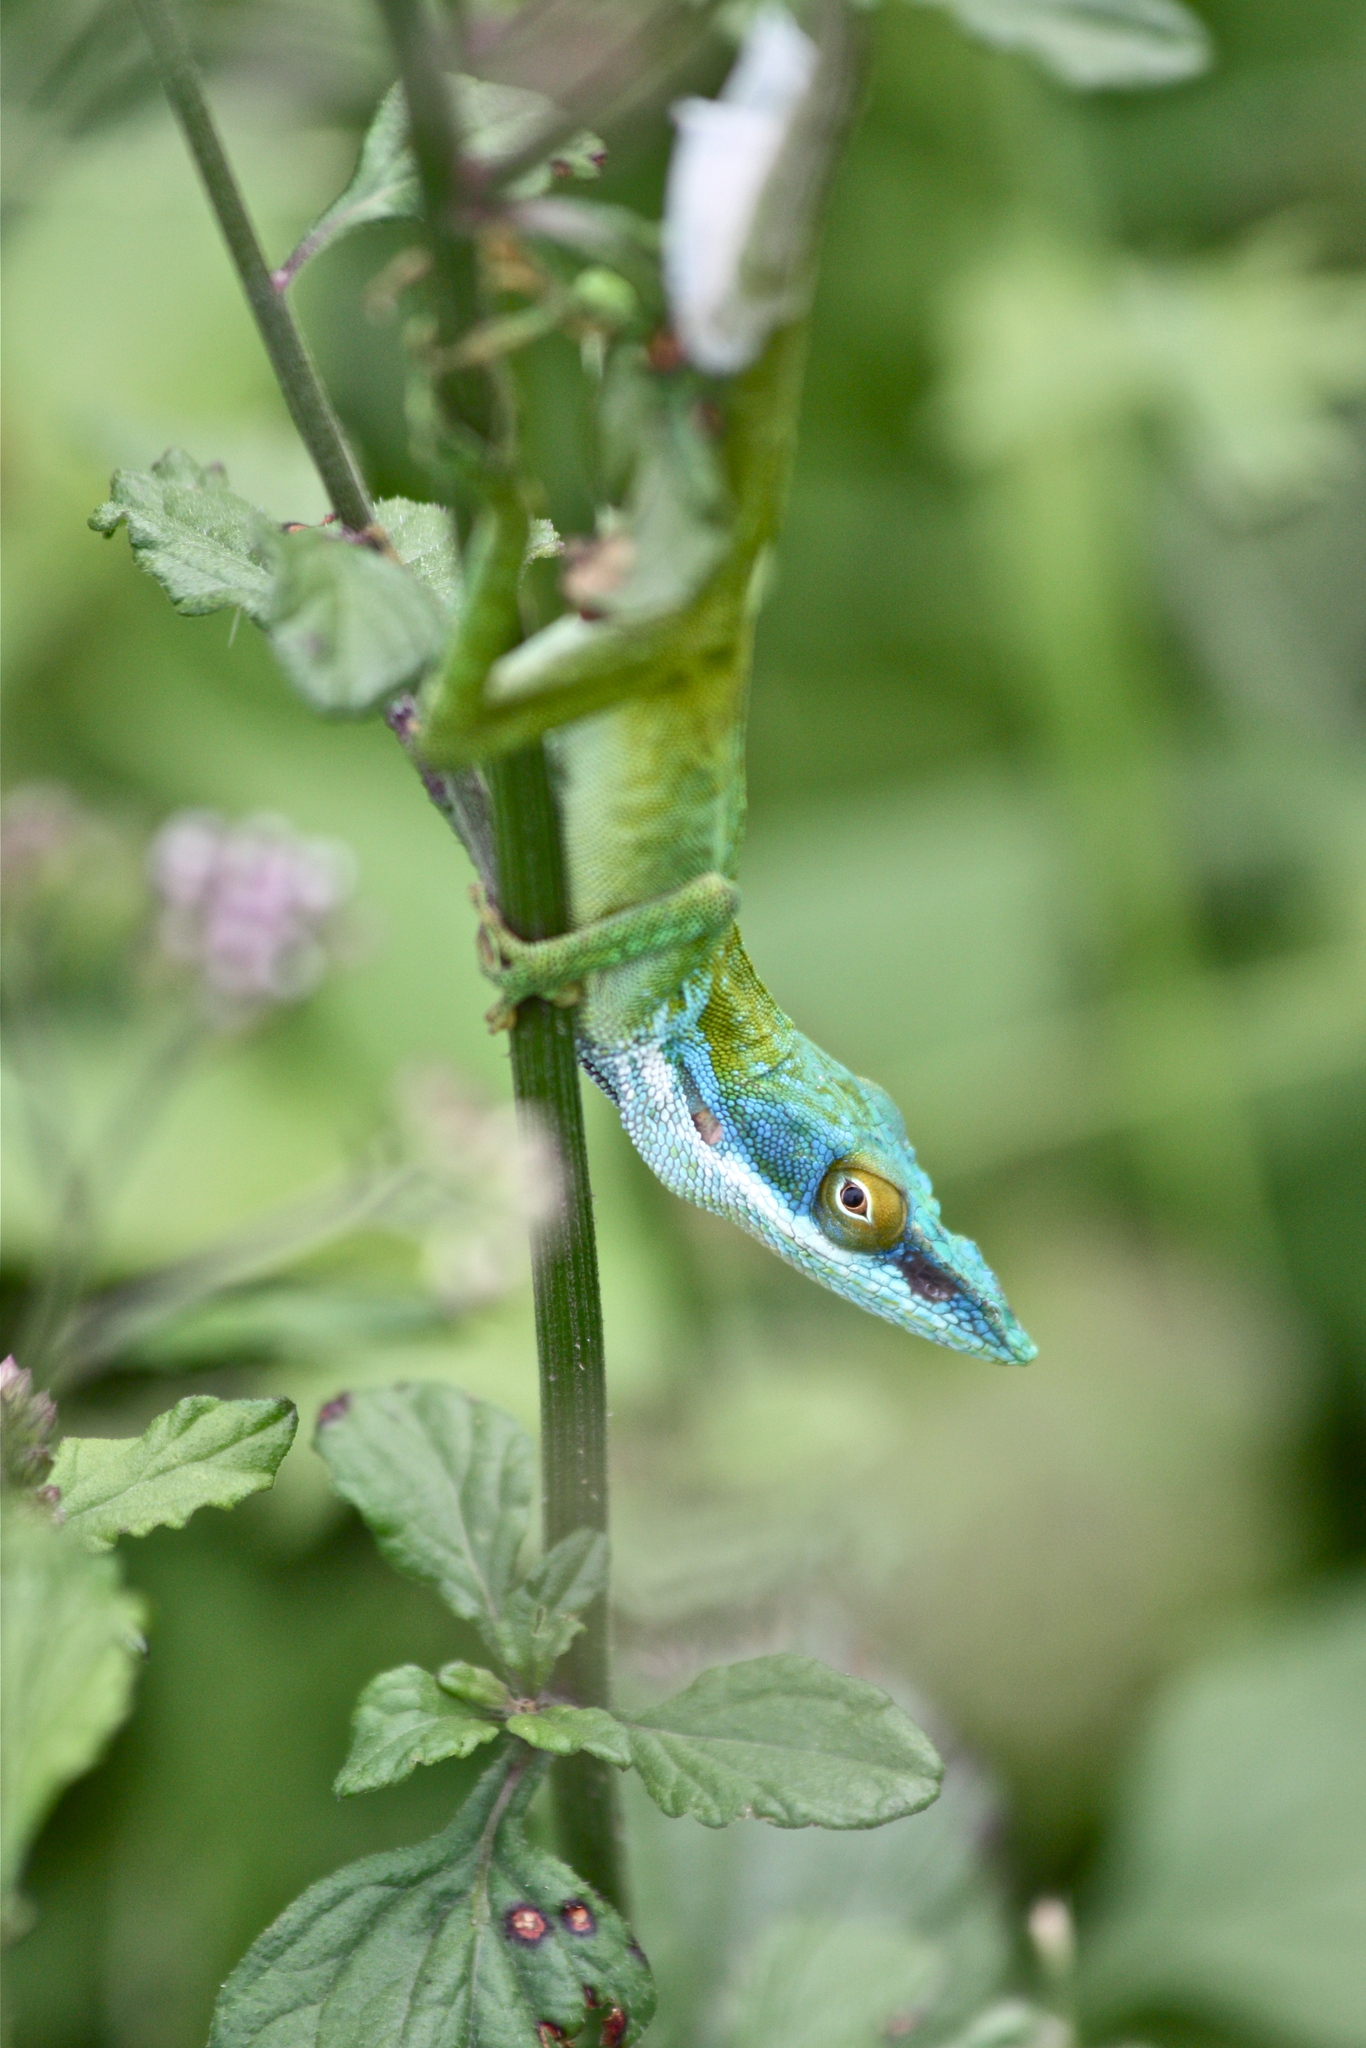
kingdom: Animalia
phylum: Chordata
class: Squamata
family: Dactyloidae
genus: Anolis
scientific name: Anolis allisoni
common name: Allison's anole
